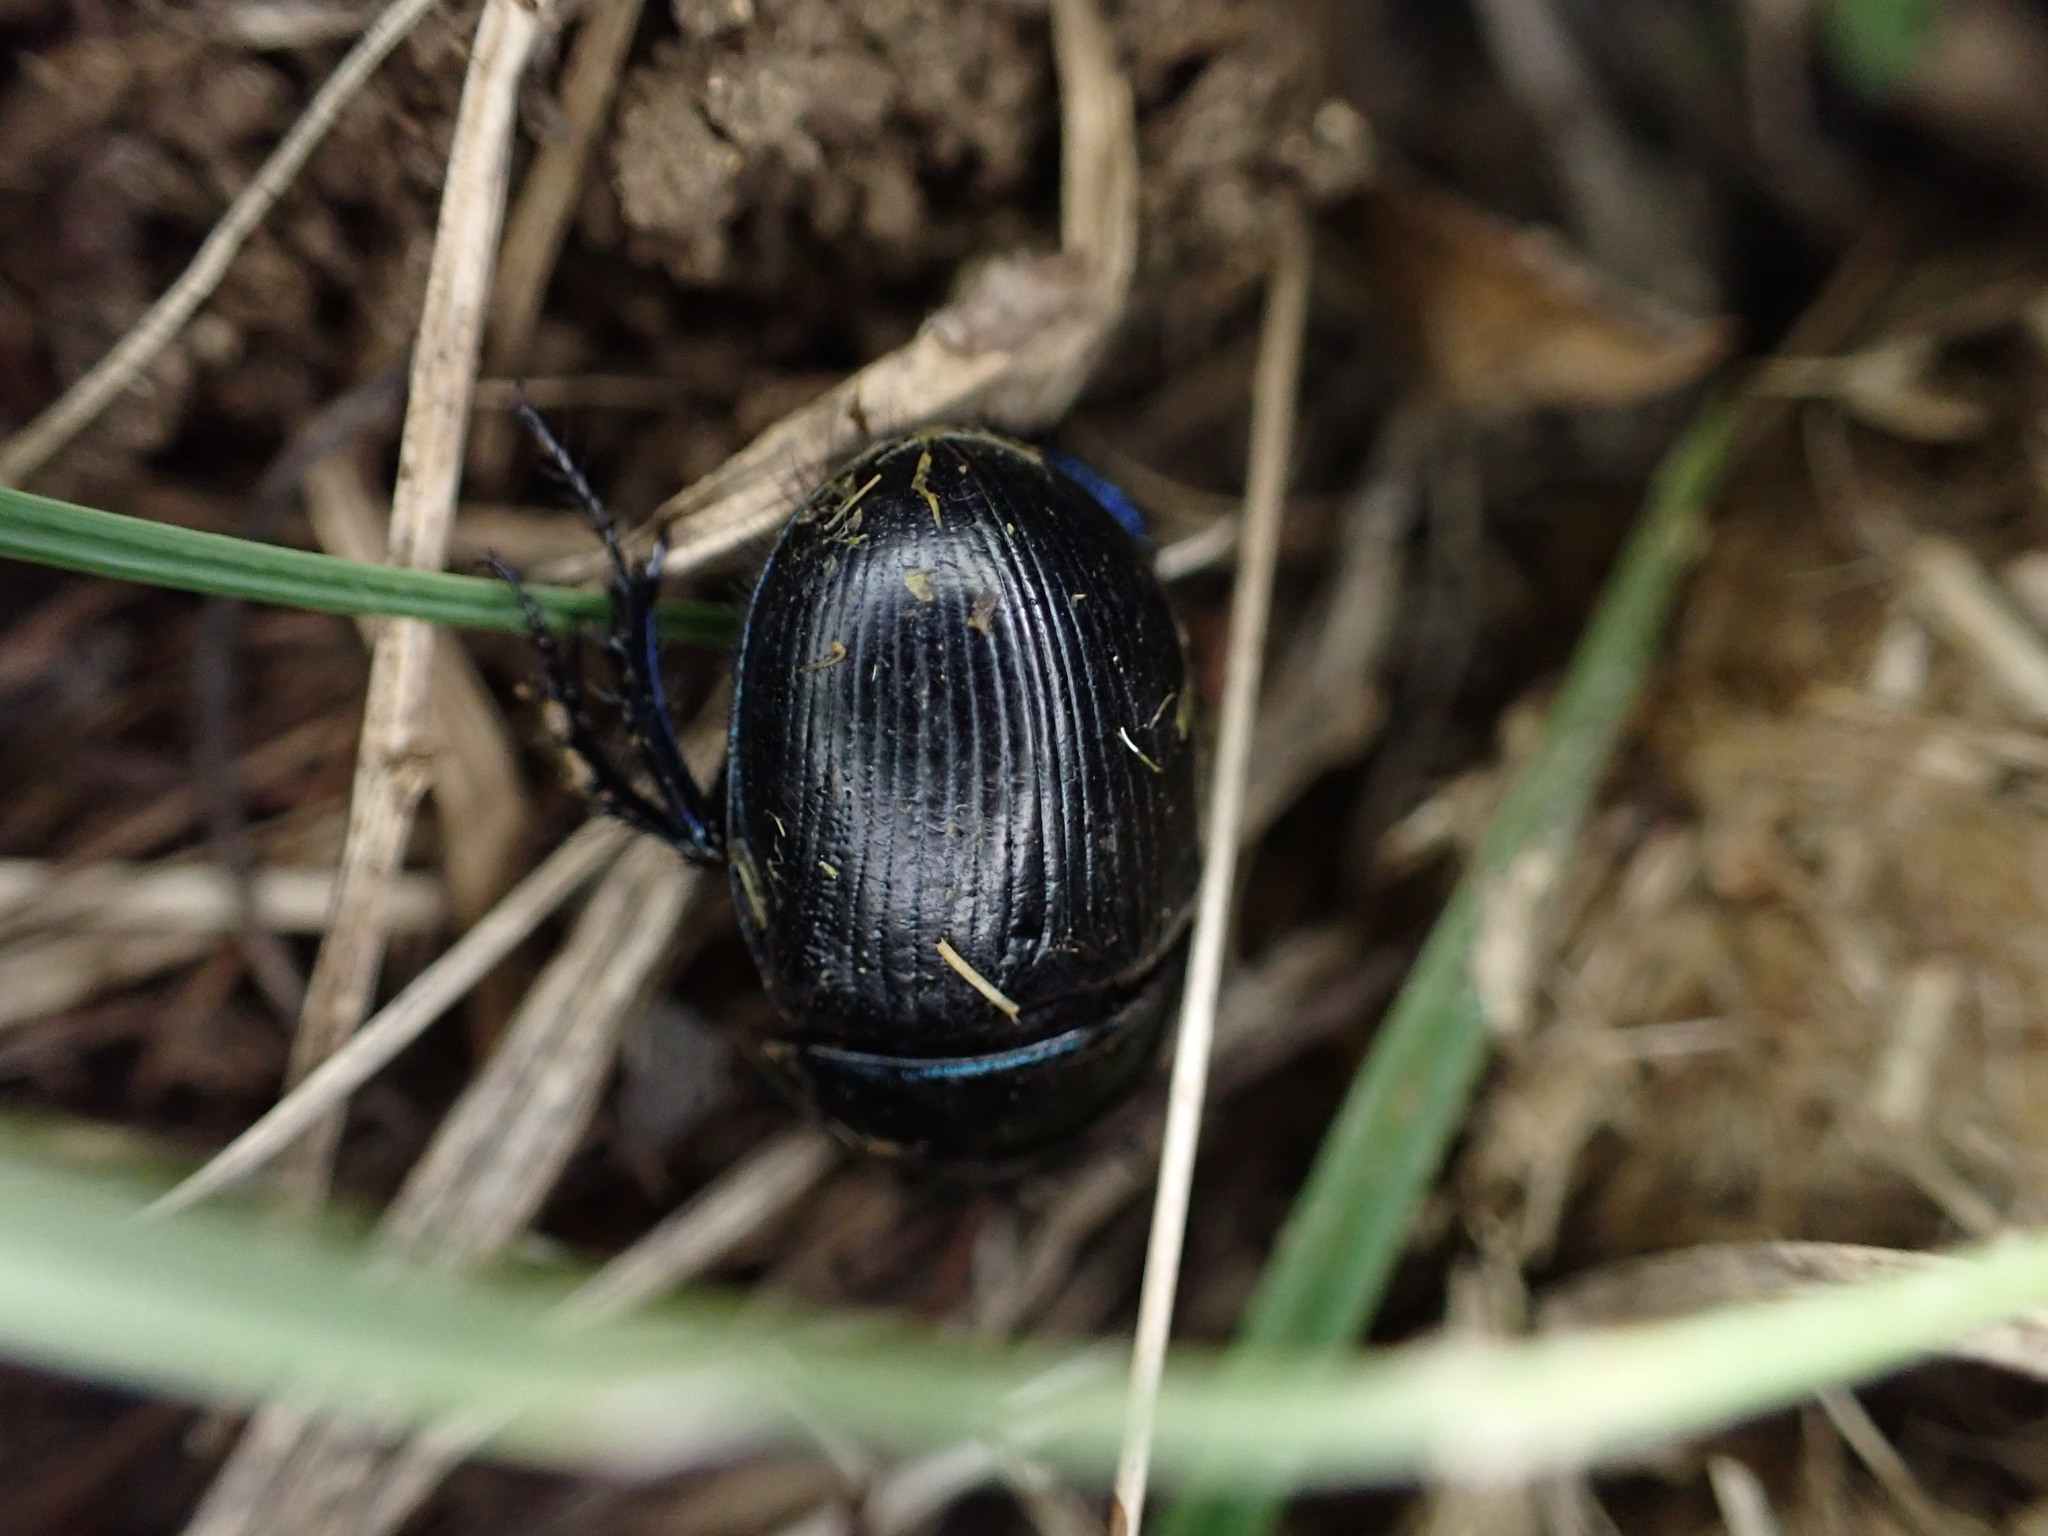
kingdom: Animalia
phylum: Arthropoda
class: Insecta
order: Coleoptera
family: Geotrupidae
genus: Geotrupes
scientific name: Geotrupes spiniger
